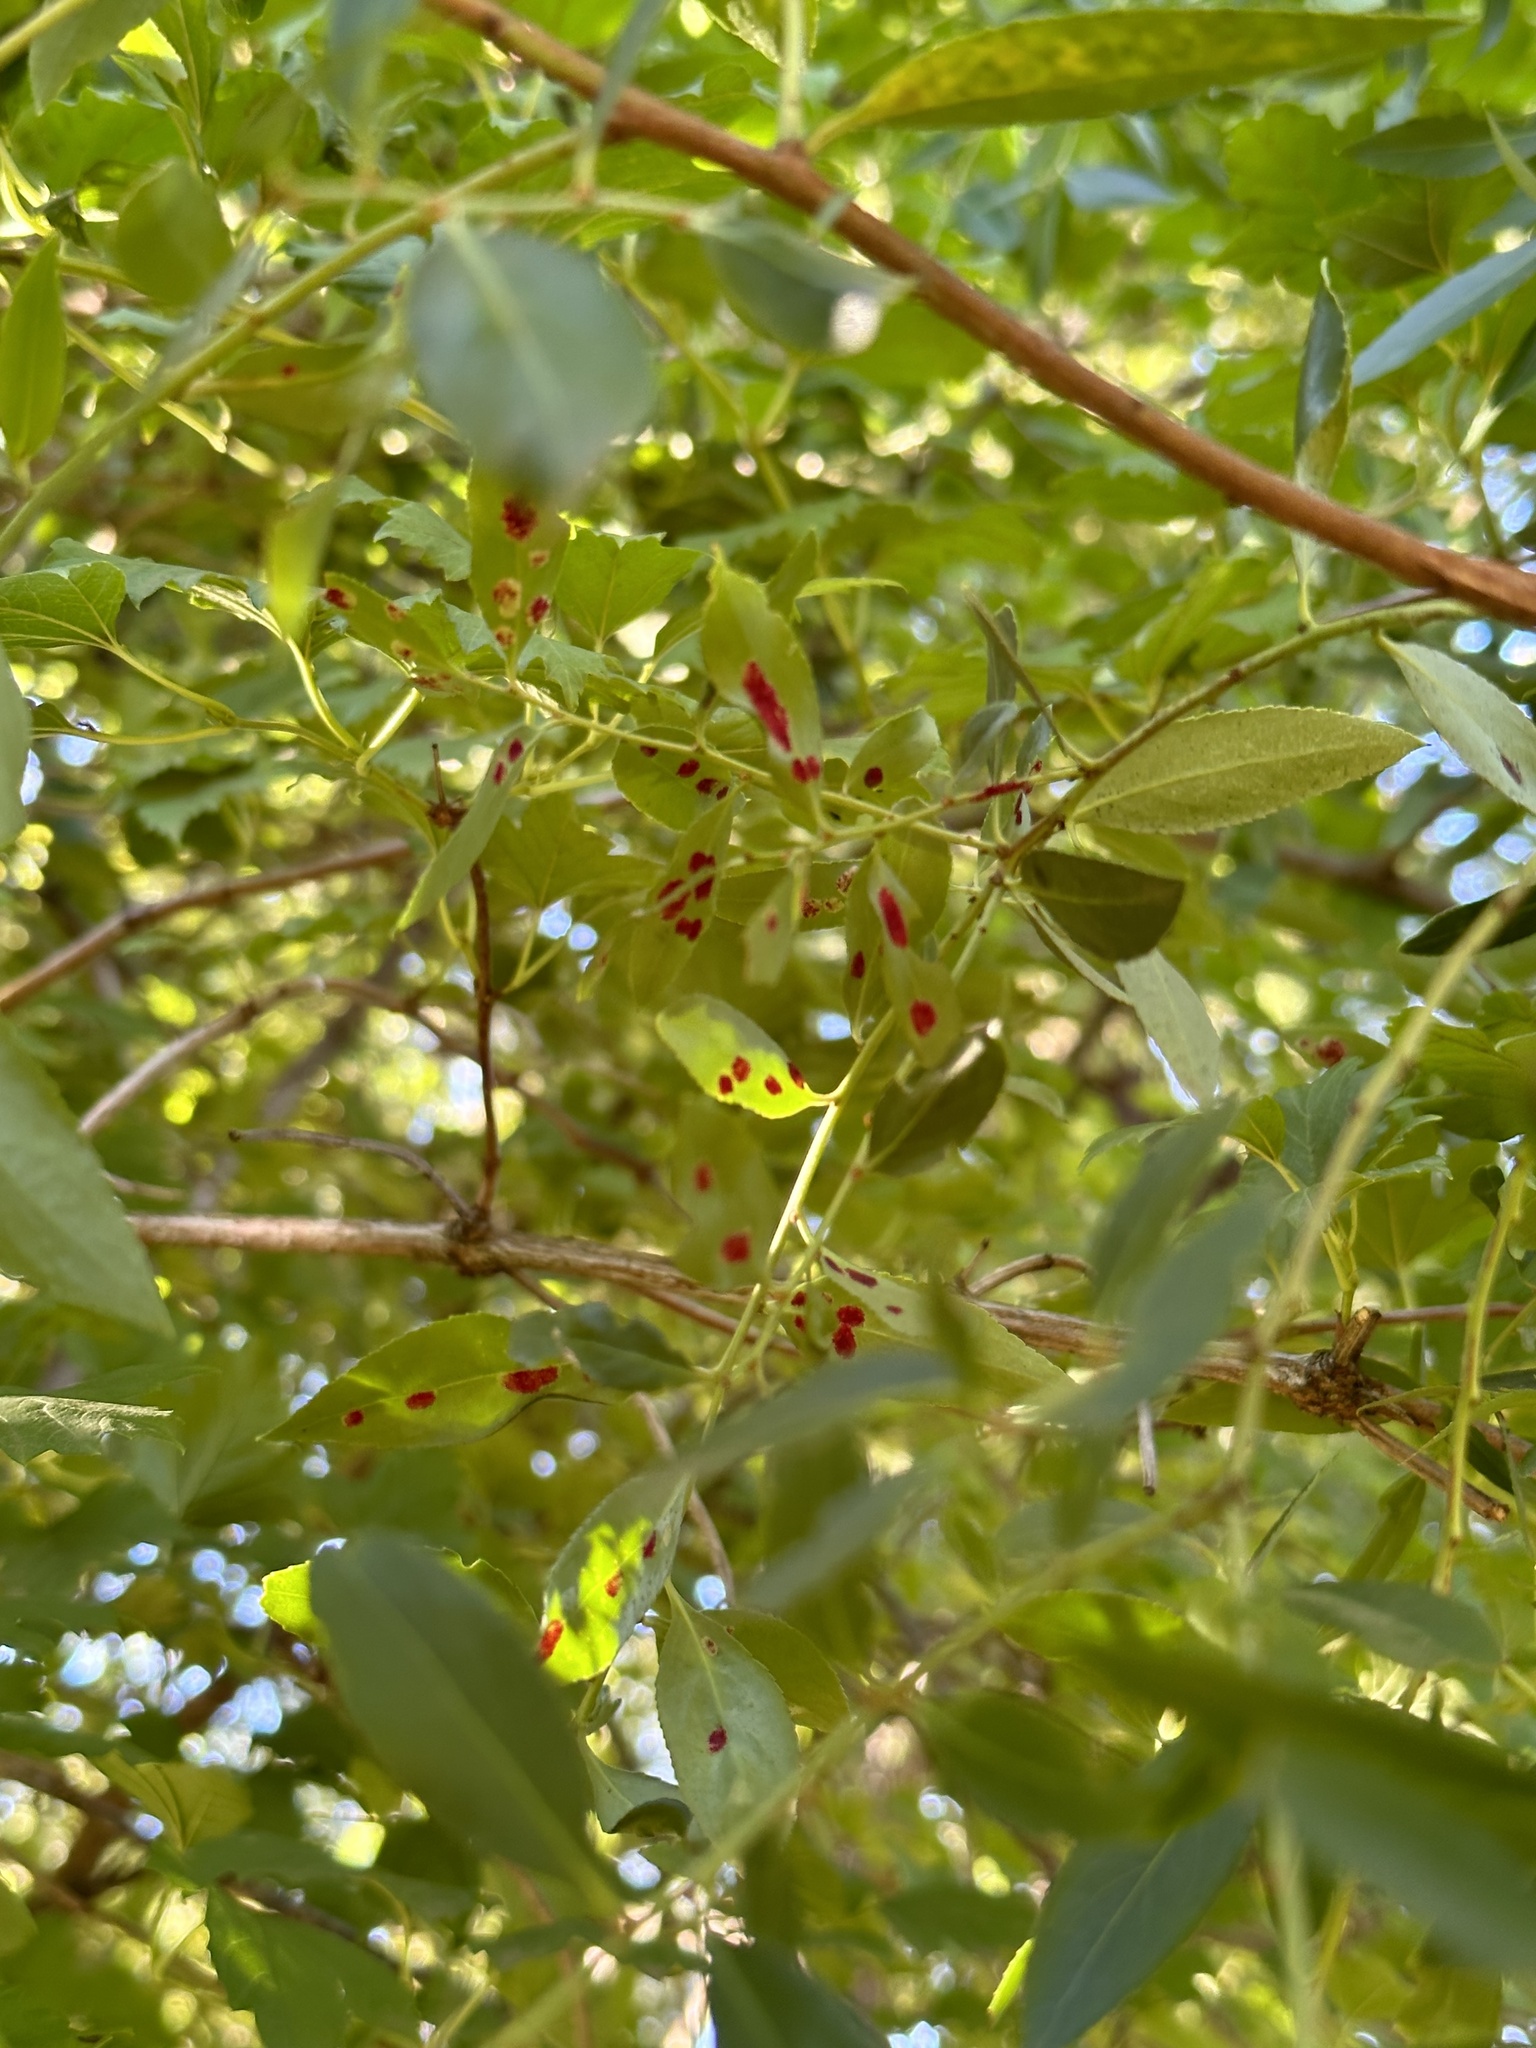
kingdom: Animalia
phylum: Arthropoda
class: Arachnida
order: Trombidiformes
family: Eriophyidae
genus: Eriophyes
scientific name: Eriophyes
